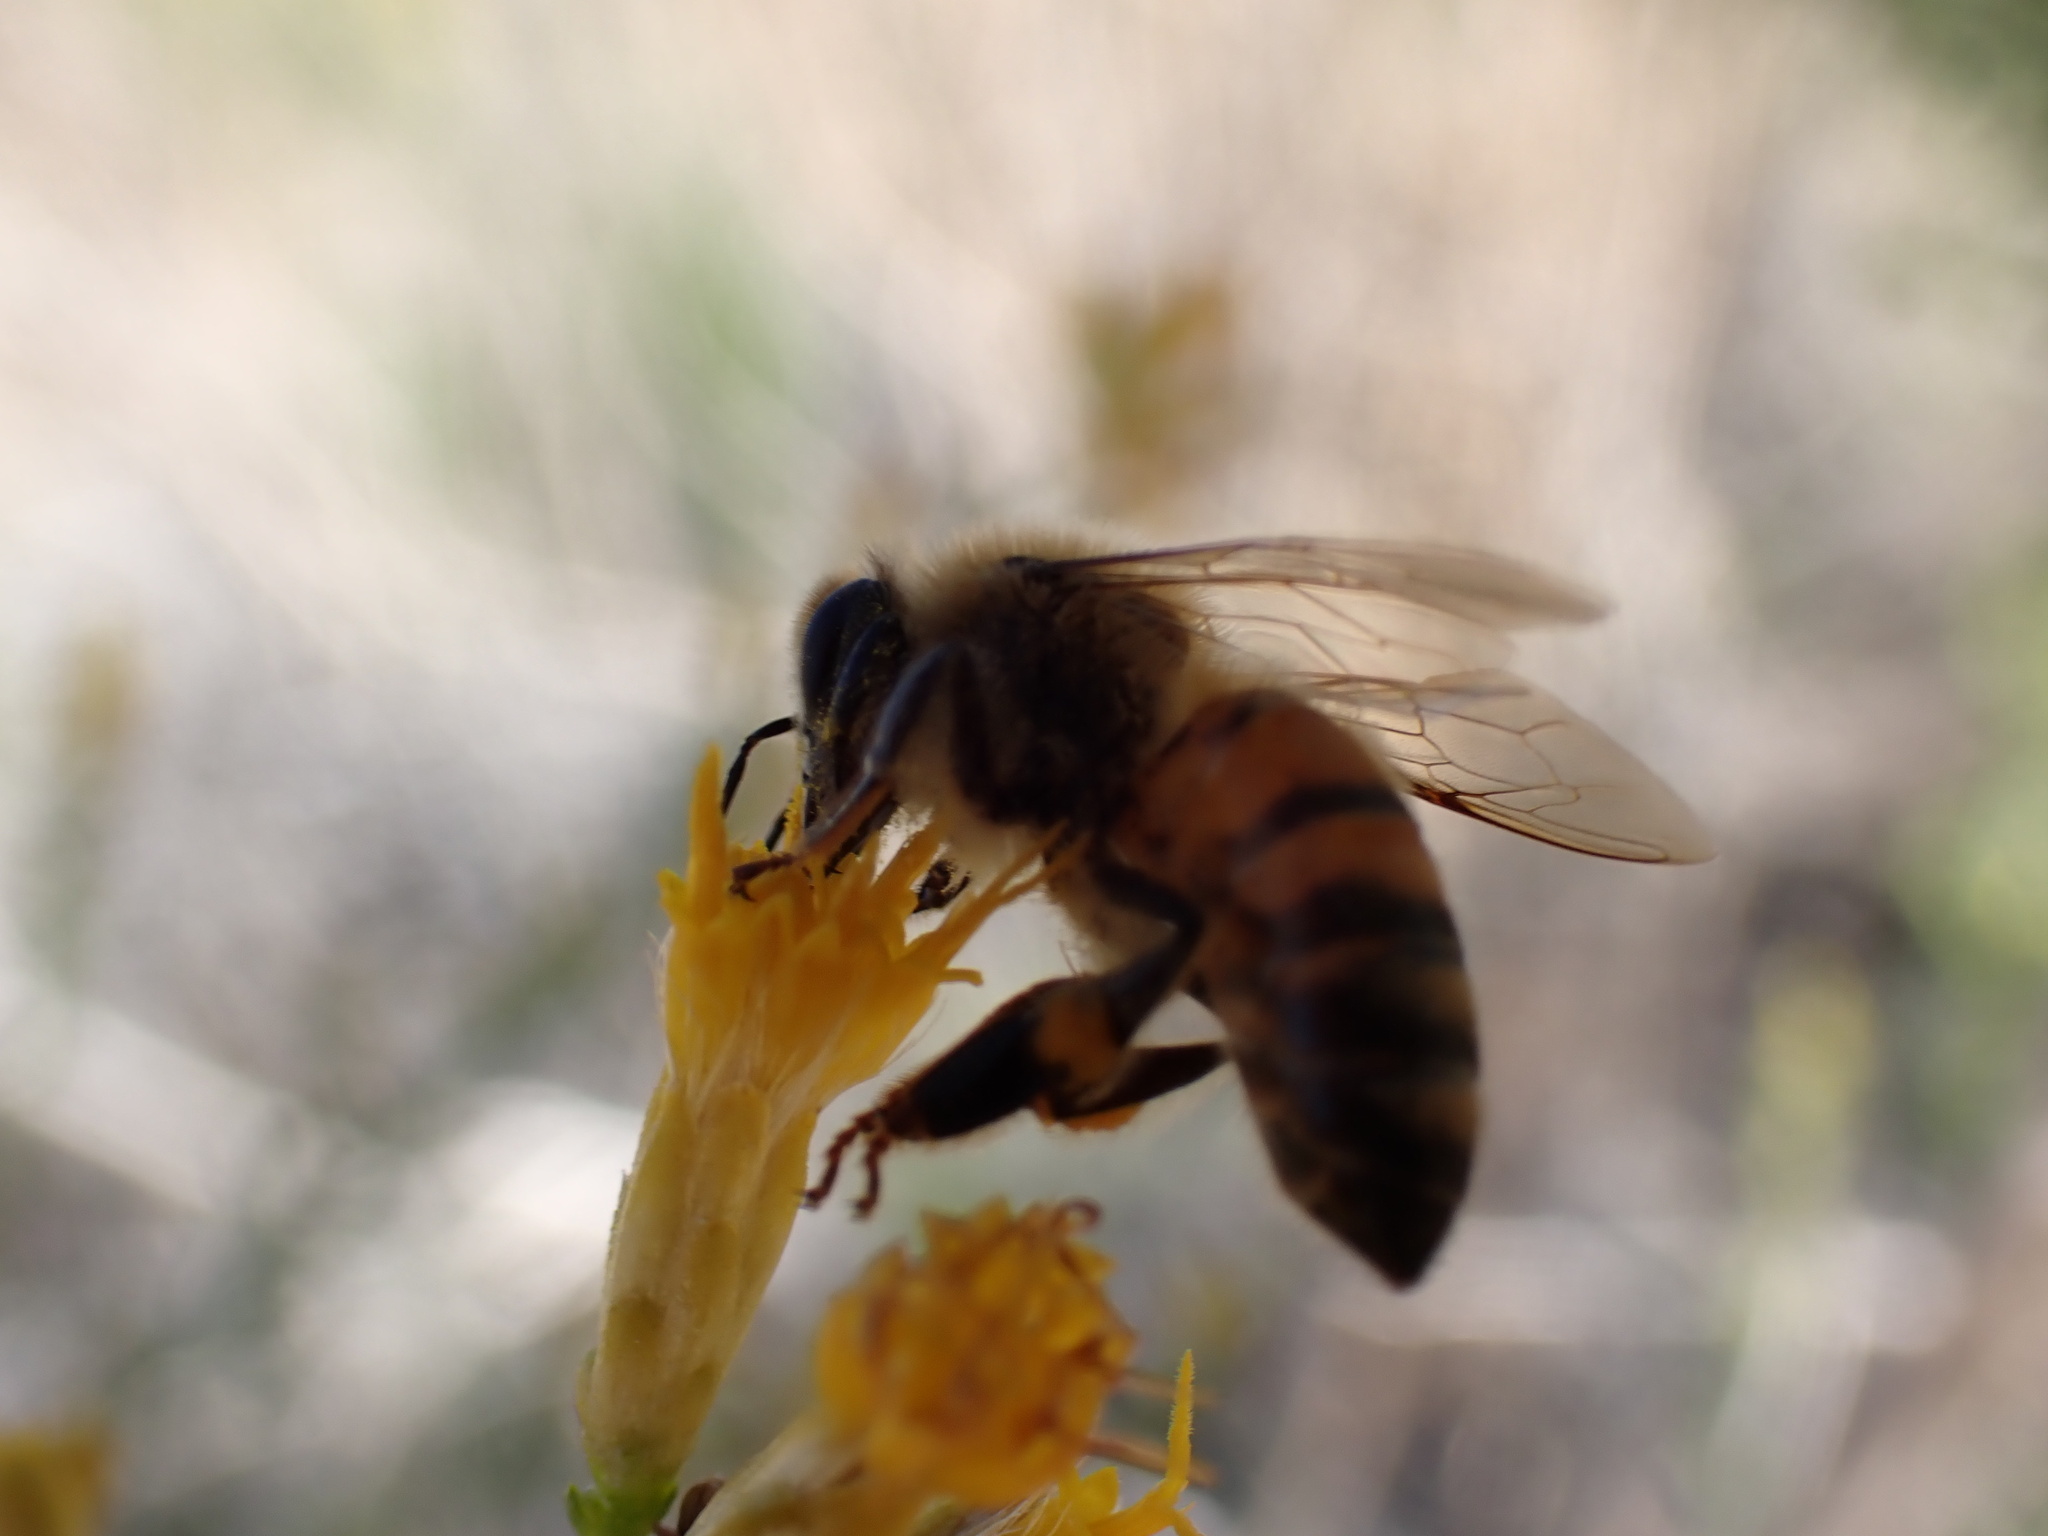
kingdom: Animalia
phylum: Arthropoda
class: Insecta
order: Hymenoptera
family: Apidae
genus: Apis
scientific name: Apis mellifera
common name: Honey bee
